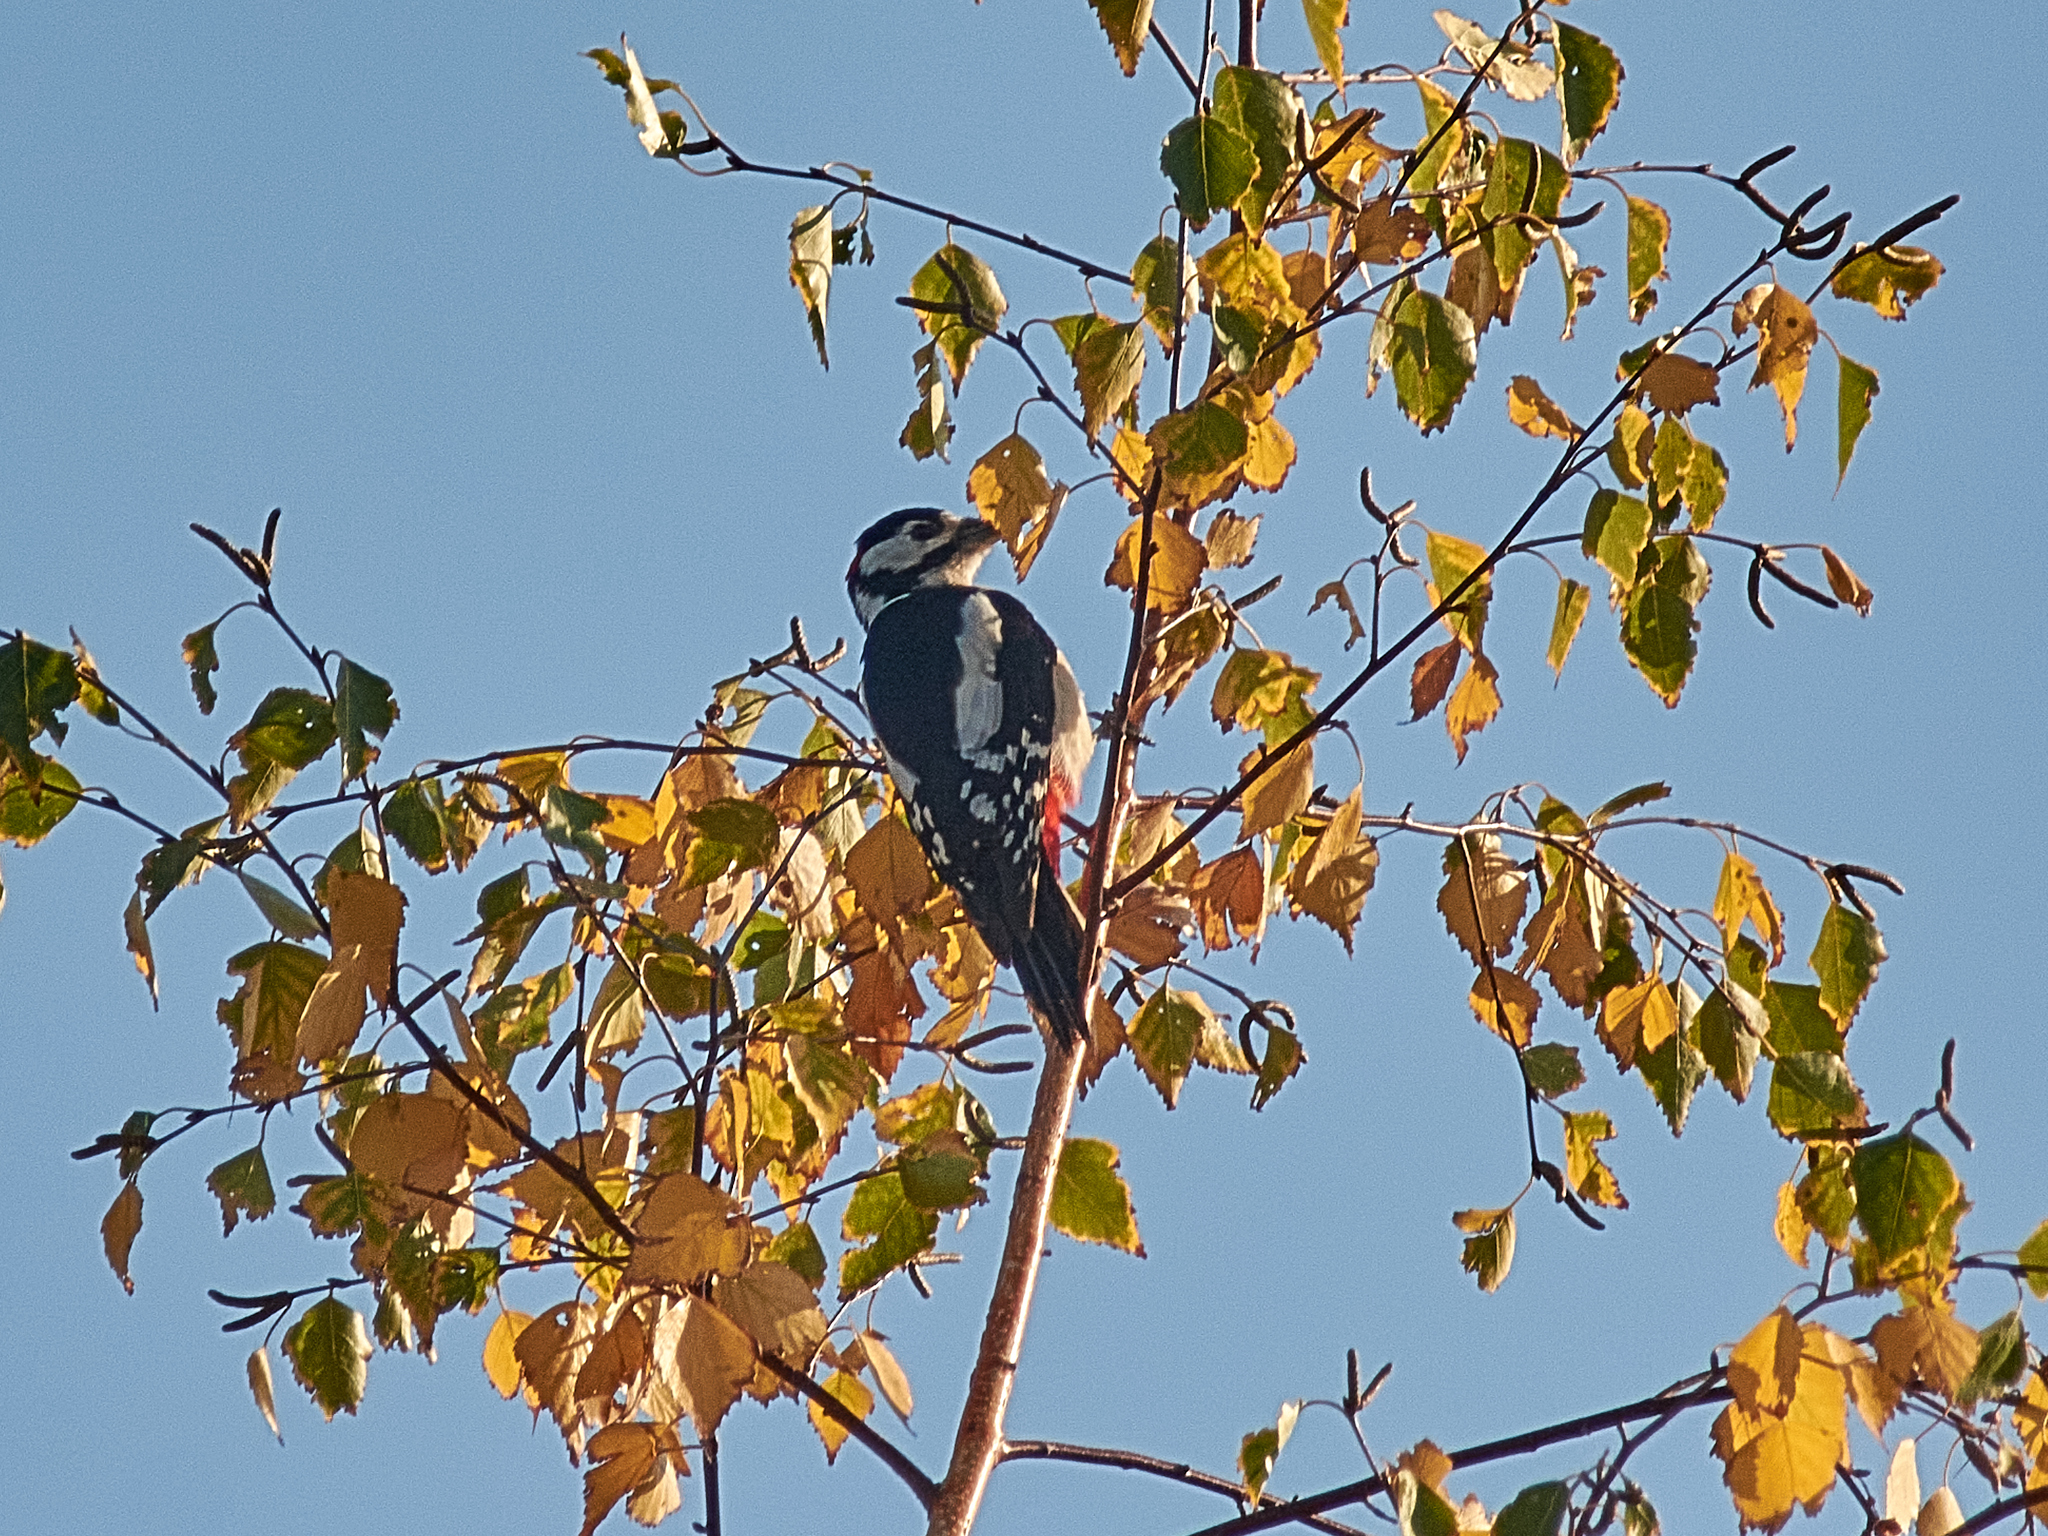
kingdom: Animalia
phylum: Chordata
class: Aves
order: Piciformes
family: Picidae
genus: Dendrocopos
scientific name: Dendrocopos major
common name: Great spotted woodpecker
